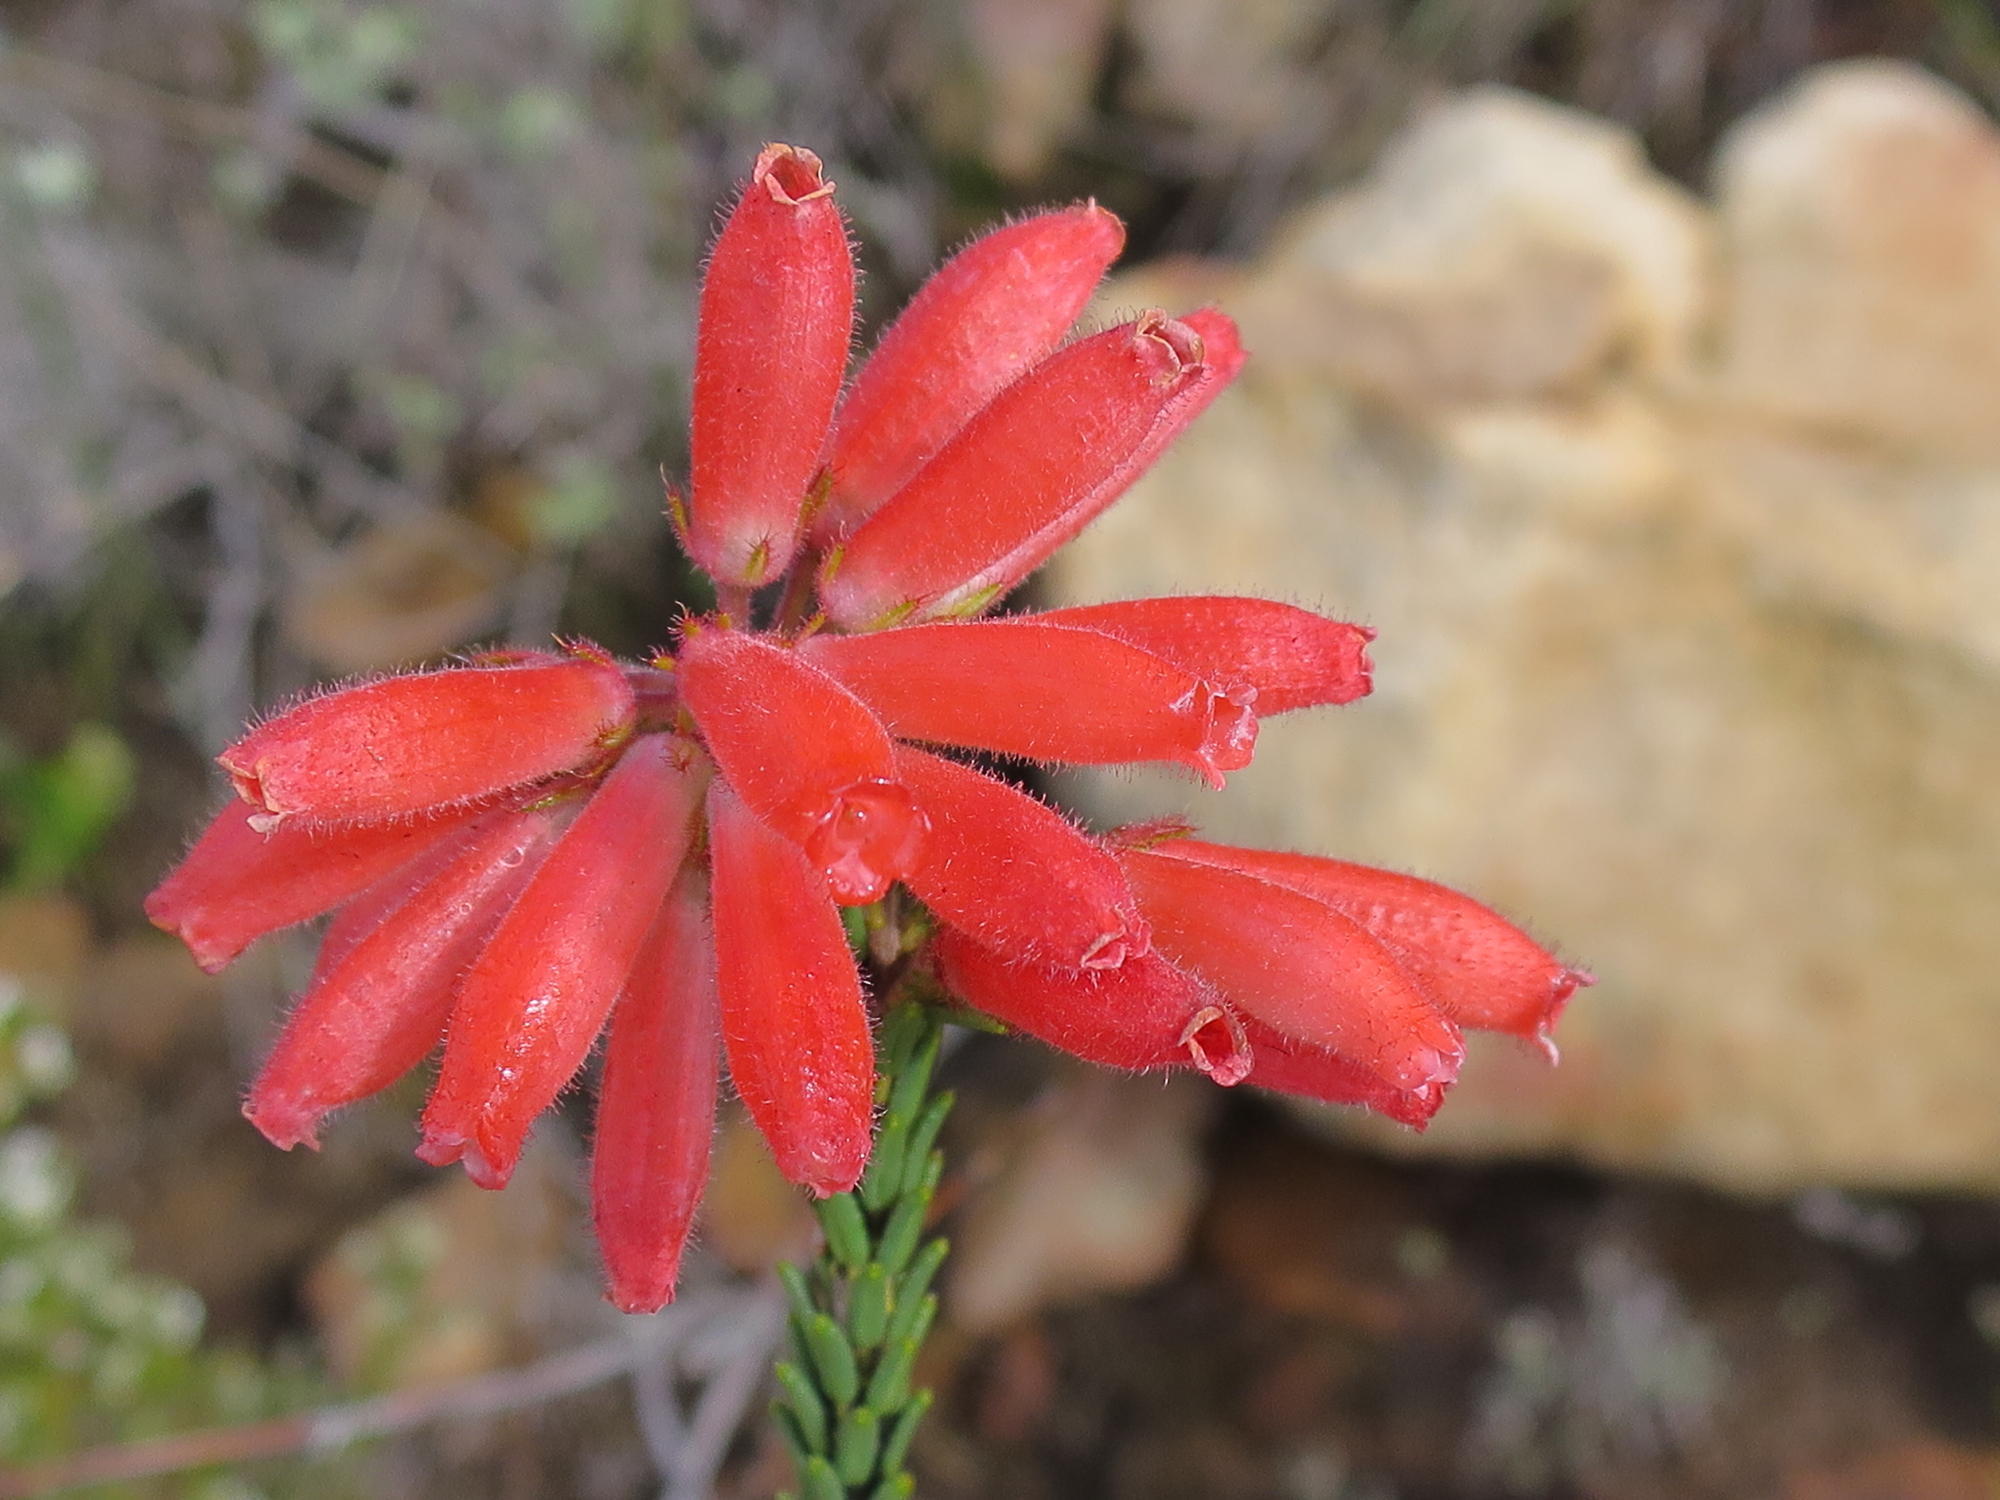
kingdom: Plantae
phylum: Tracheophyta
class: Magnoliopsida
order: Ericales
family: Ericaceae
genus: Erica
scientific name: Erica cerinthoides
